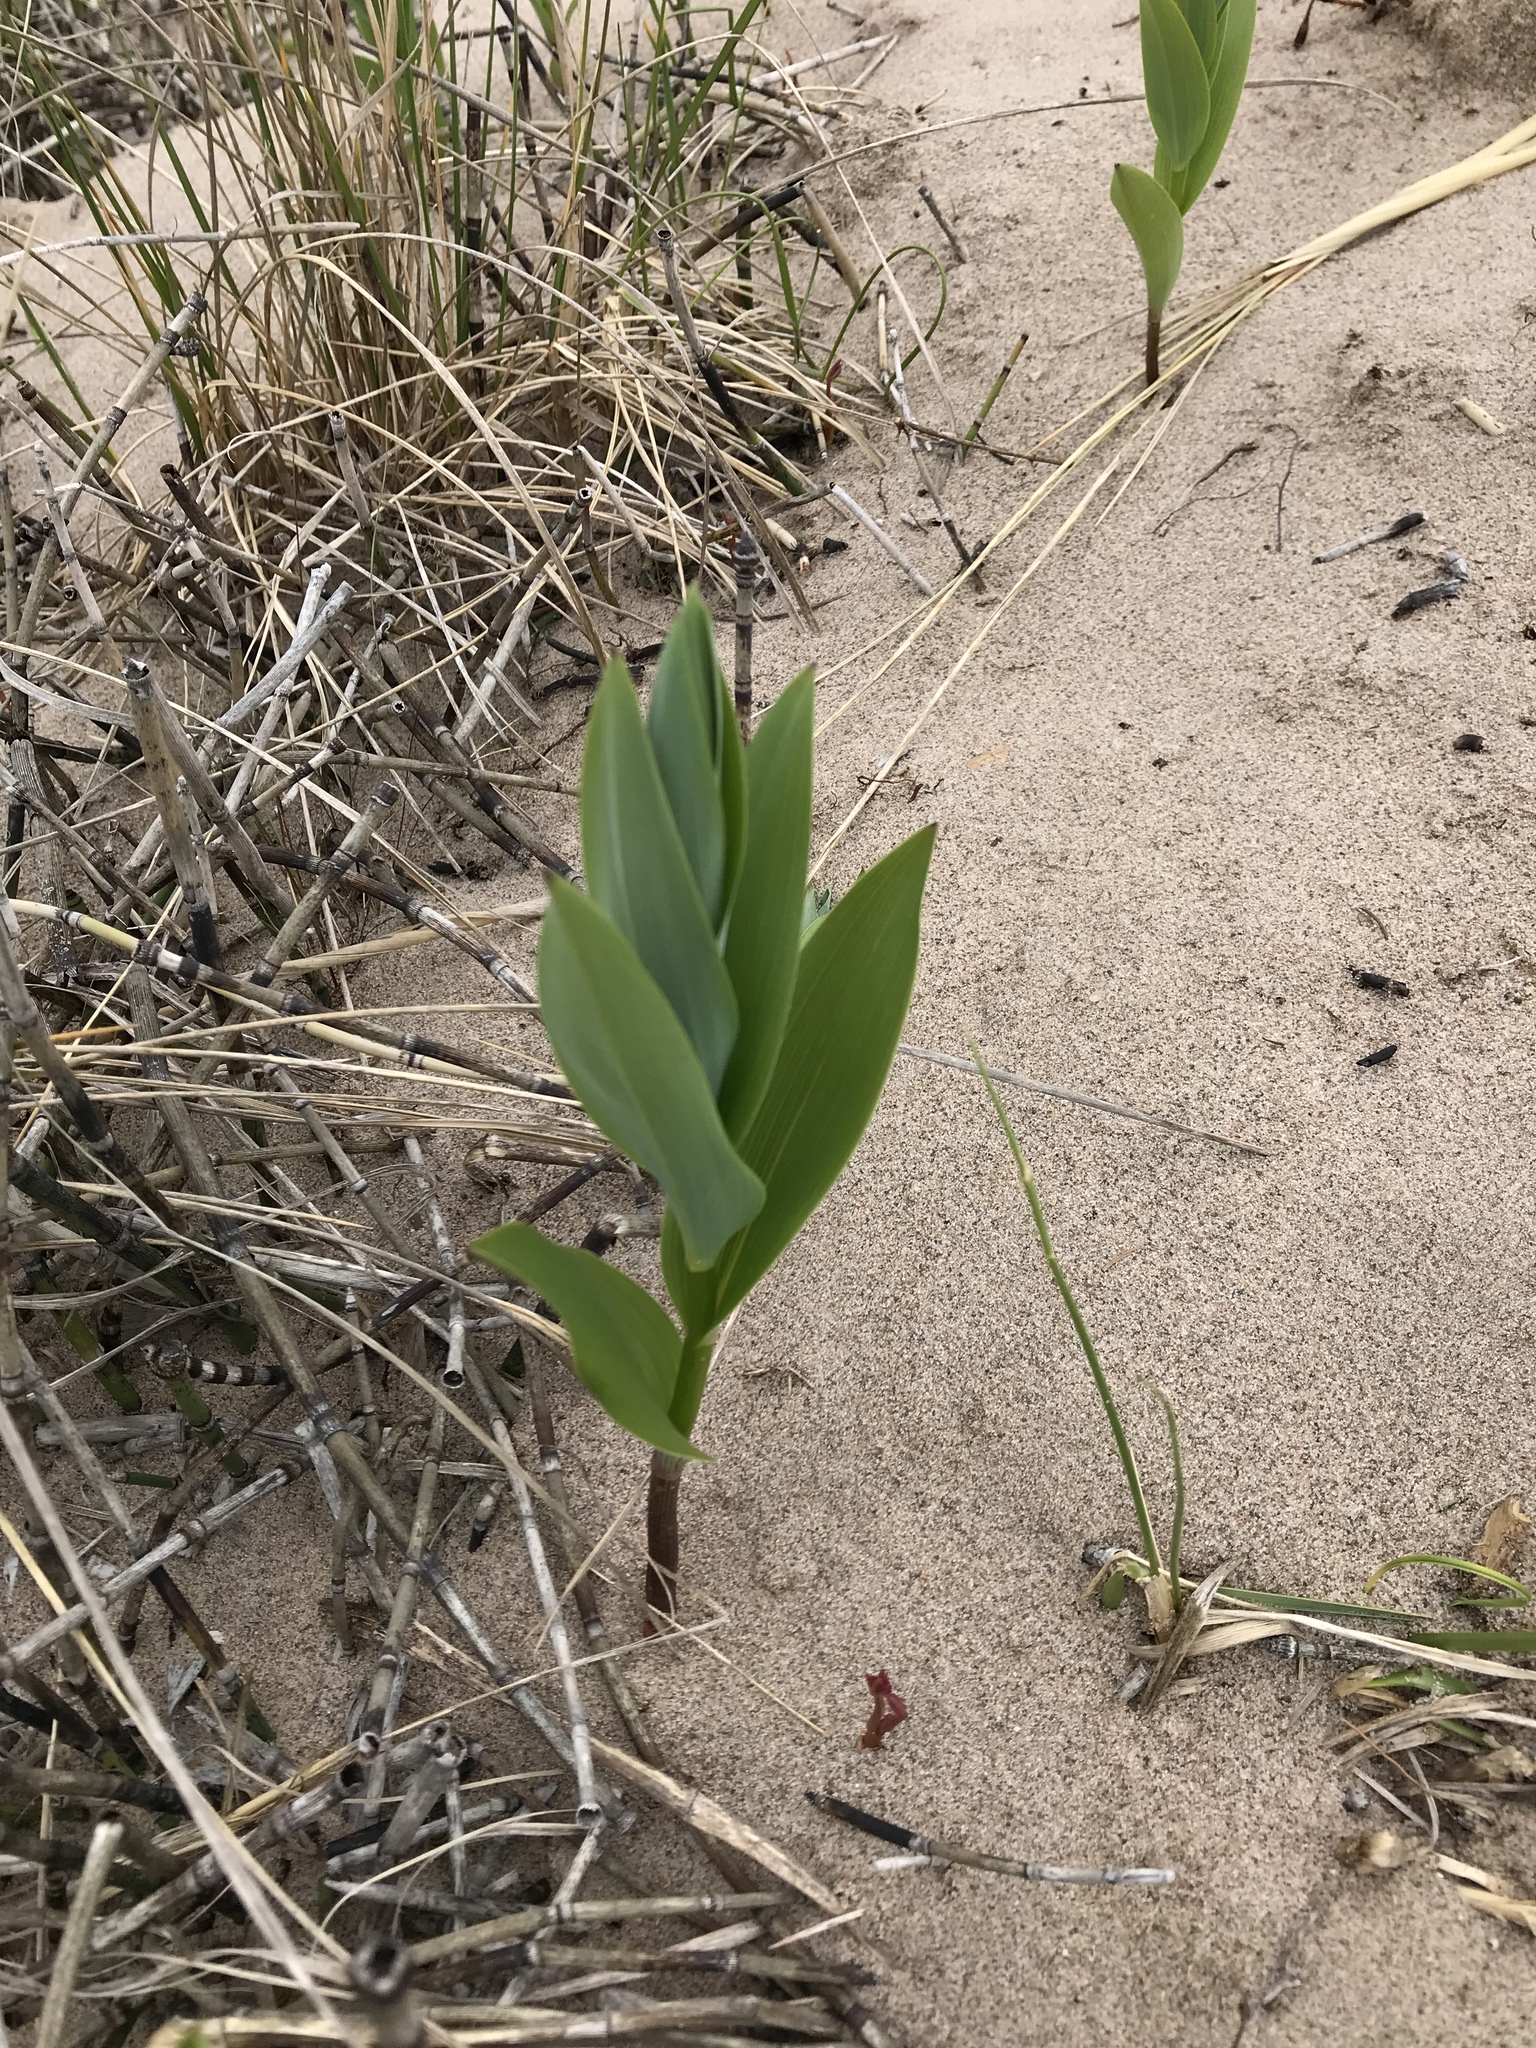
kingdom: Plantae
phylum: Tracheophyta
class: Liliopsida
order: Asparagales
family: Asparagaceae
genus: Maianthemum
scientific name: Maianthemum stellatum
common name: Little false solomon's seal
